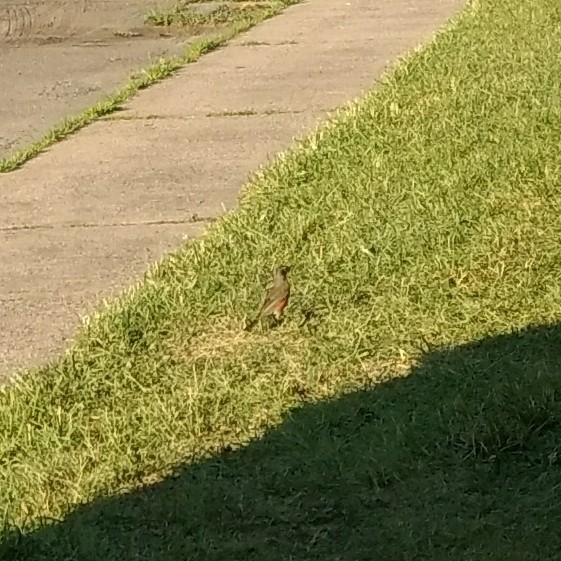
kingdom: Animalia
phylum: Chordata
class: Aves
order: Passeriformes
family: Turdidae
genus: Turdus
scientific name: Turdus migratorius
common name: American robin
